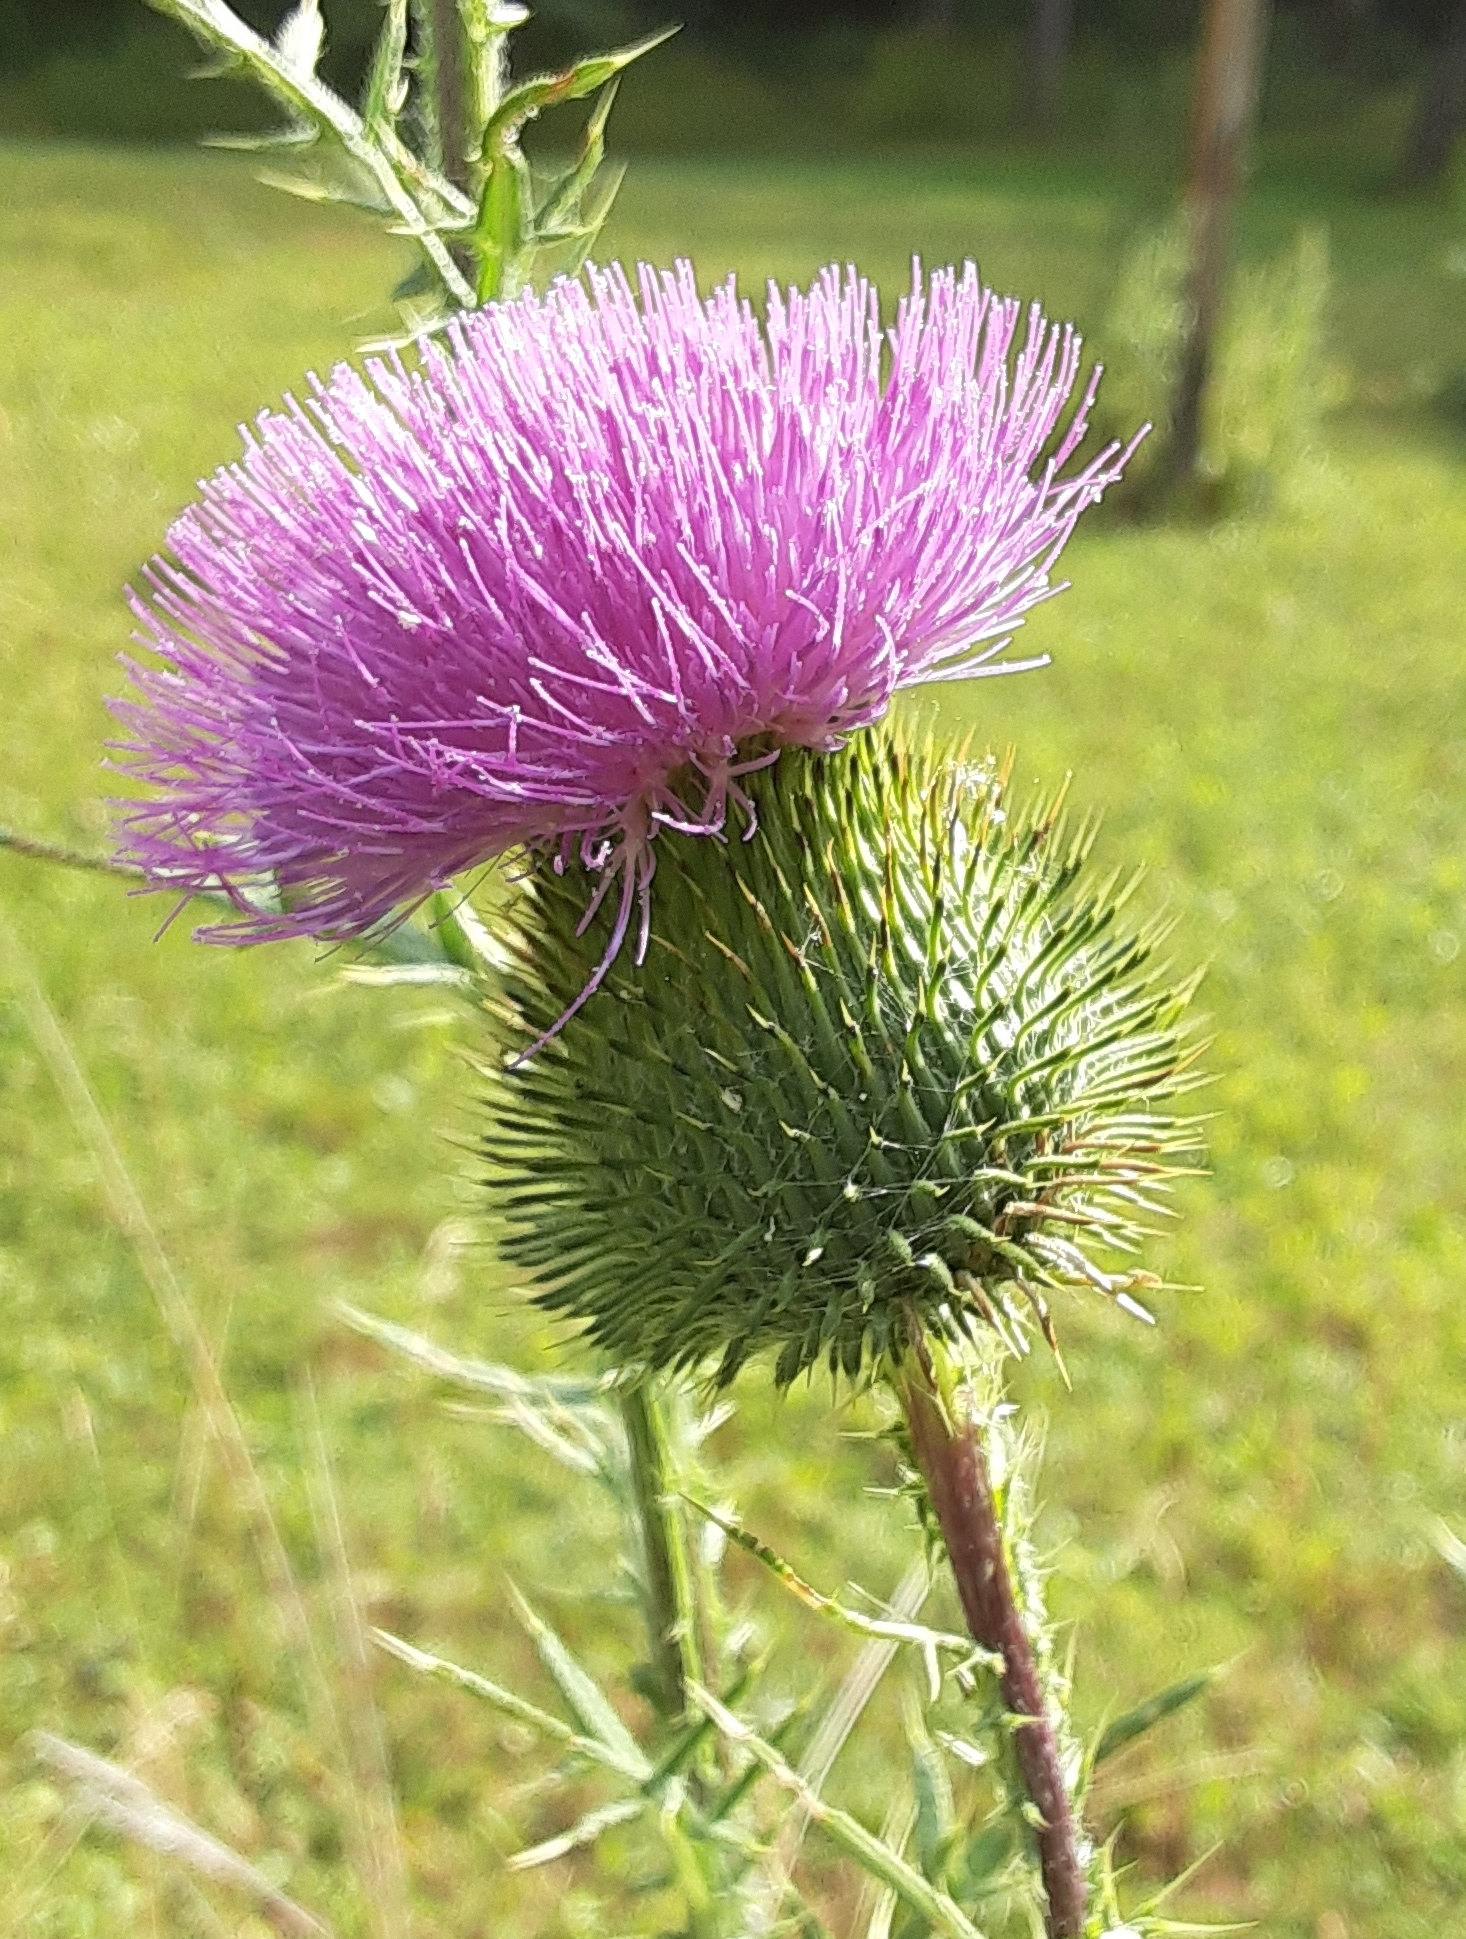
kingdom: Plantae
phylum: Tracheophyta
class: Magnoliopsida
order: Asterales
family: Asteraceae
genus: Cirsium
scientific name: Cirsium vulgare
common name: Bull thistle
